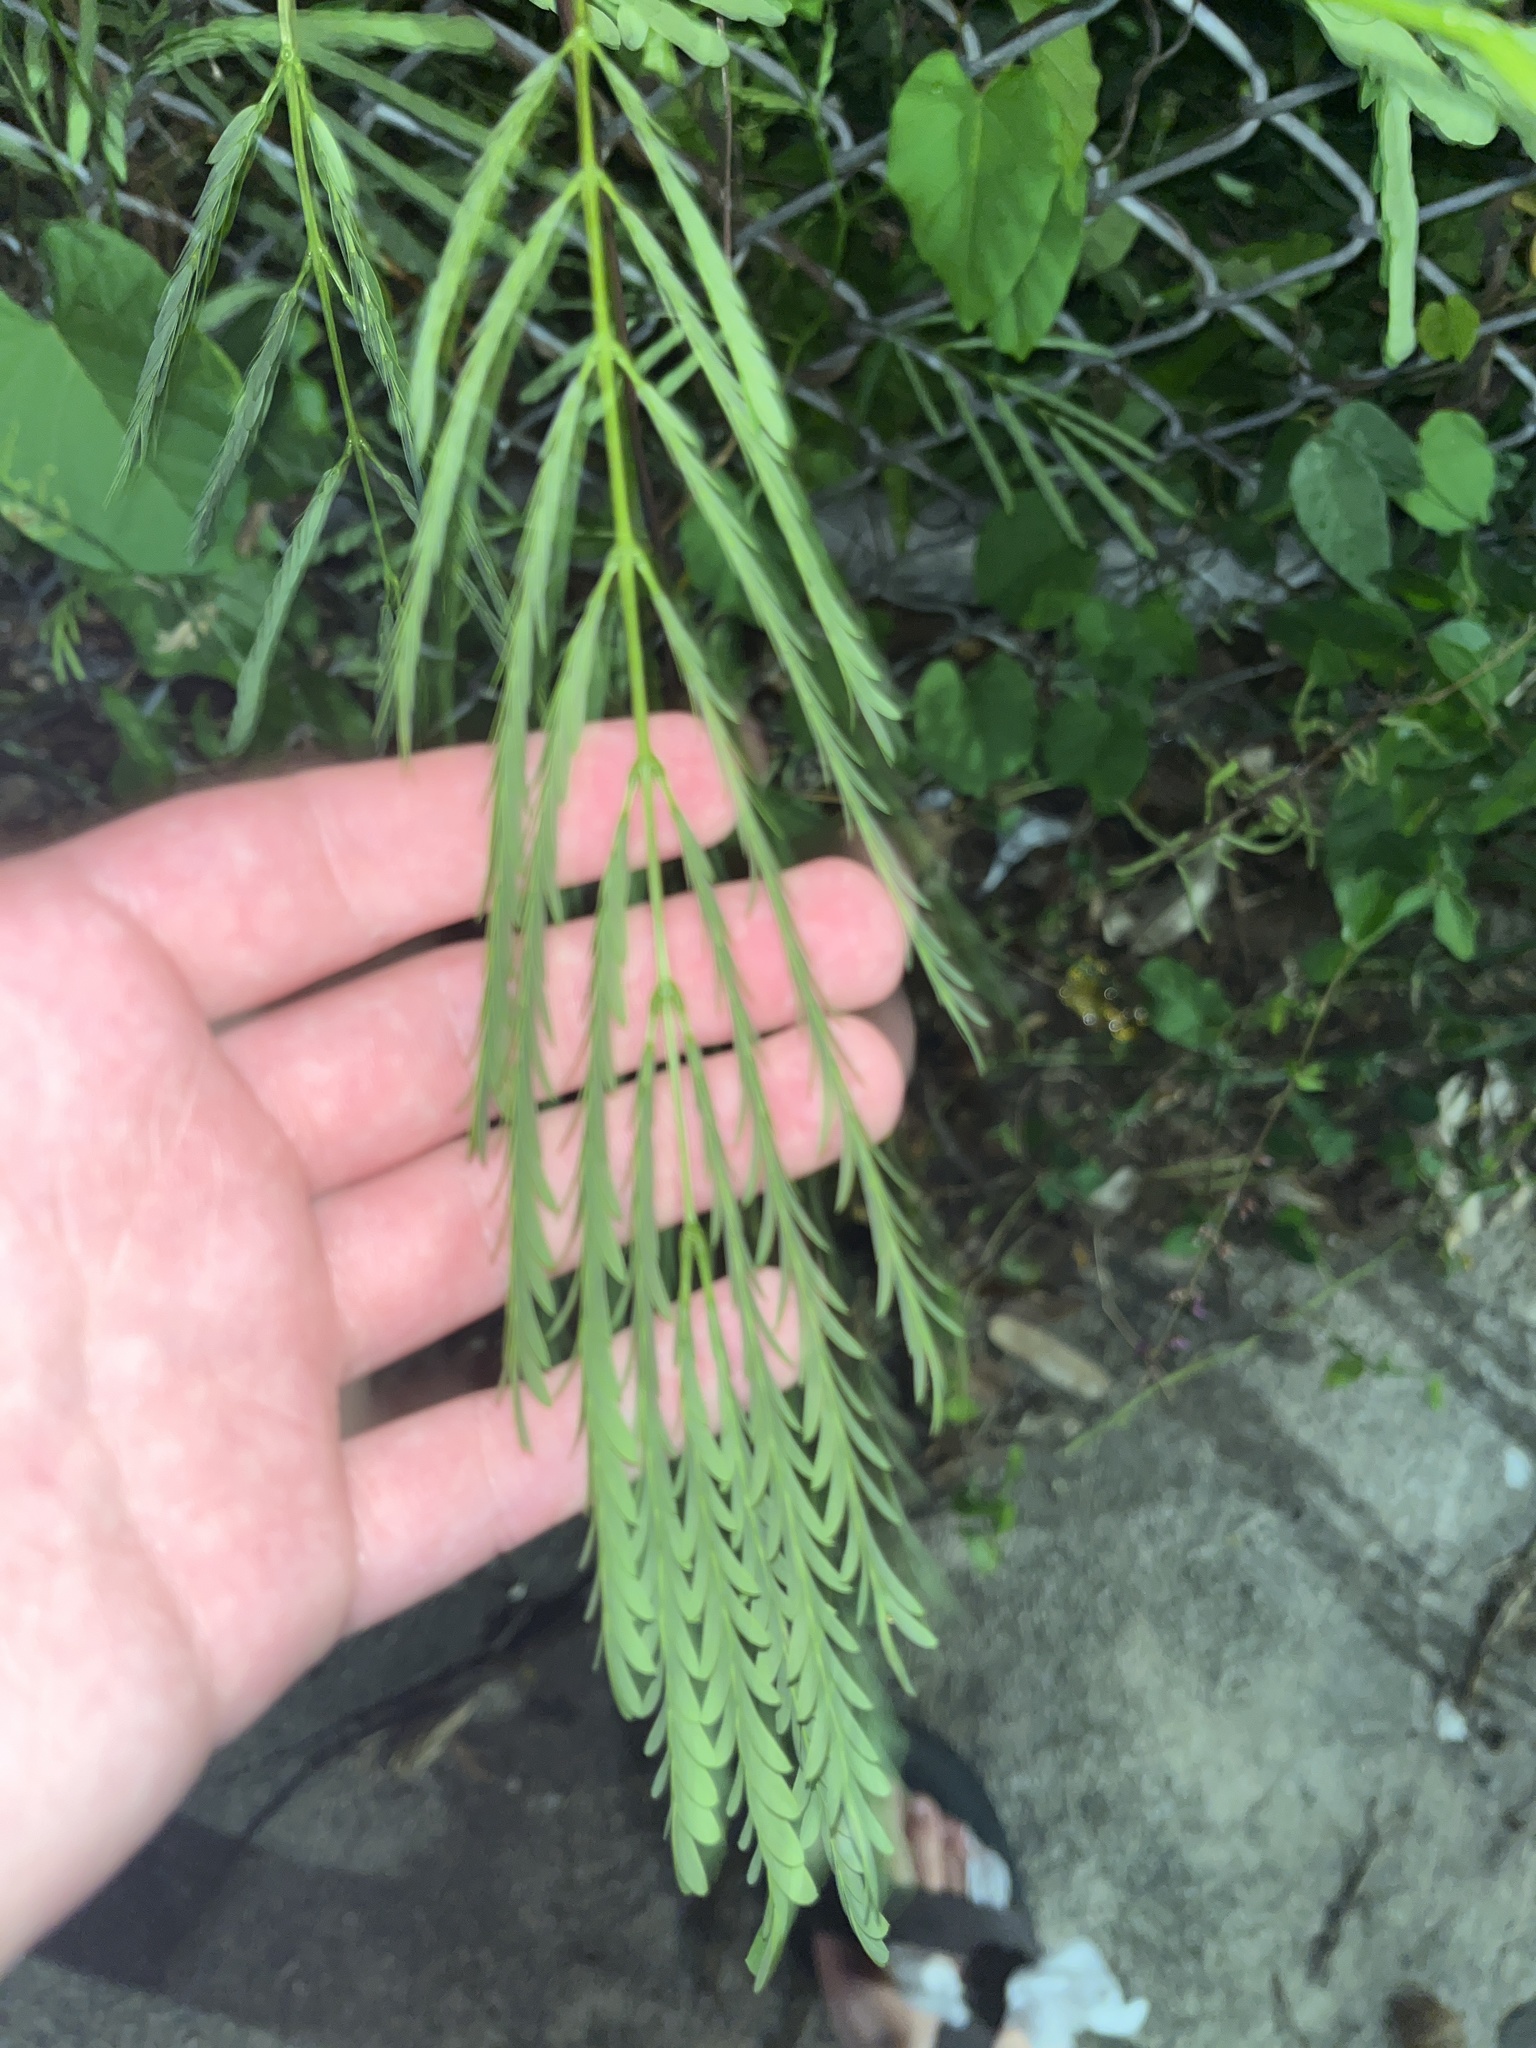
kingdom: Plantae
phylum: Tracheophyta
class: Magnoliopsida
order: Fabales
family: Fabaceae
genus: Leucaena
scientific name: Leucaena leucocephala
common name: White leadtree
